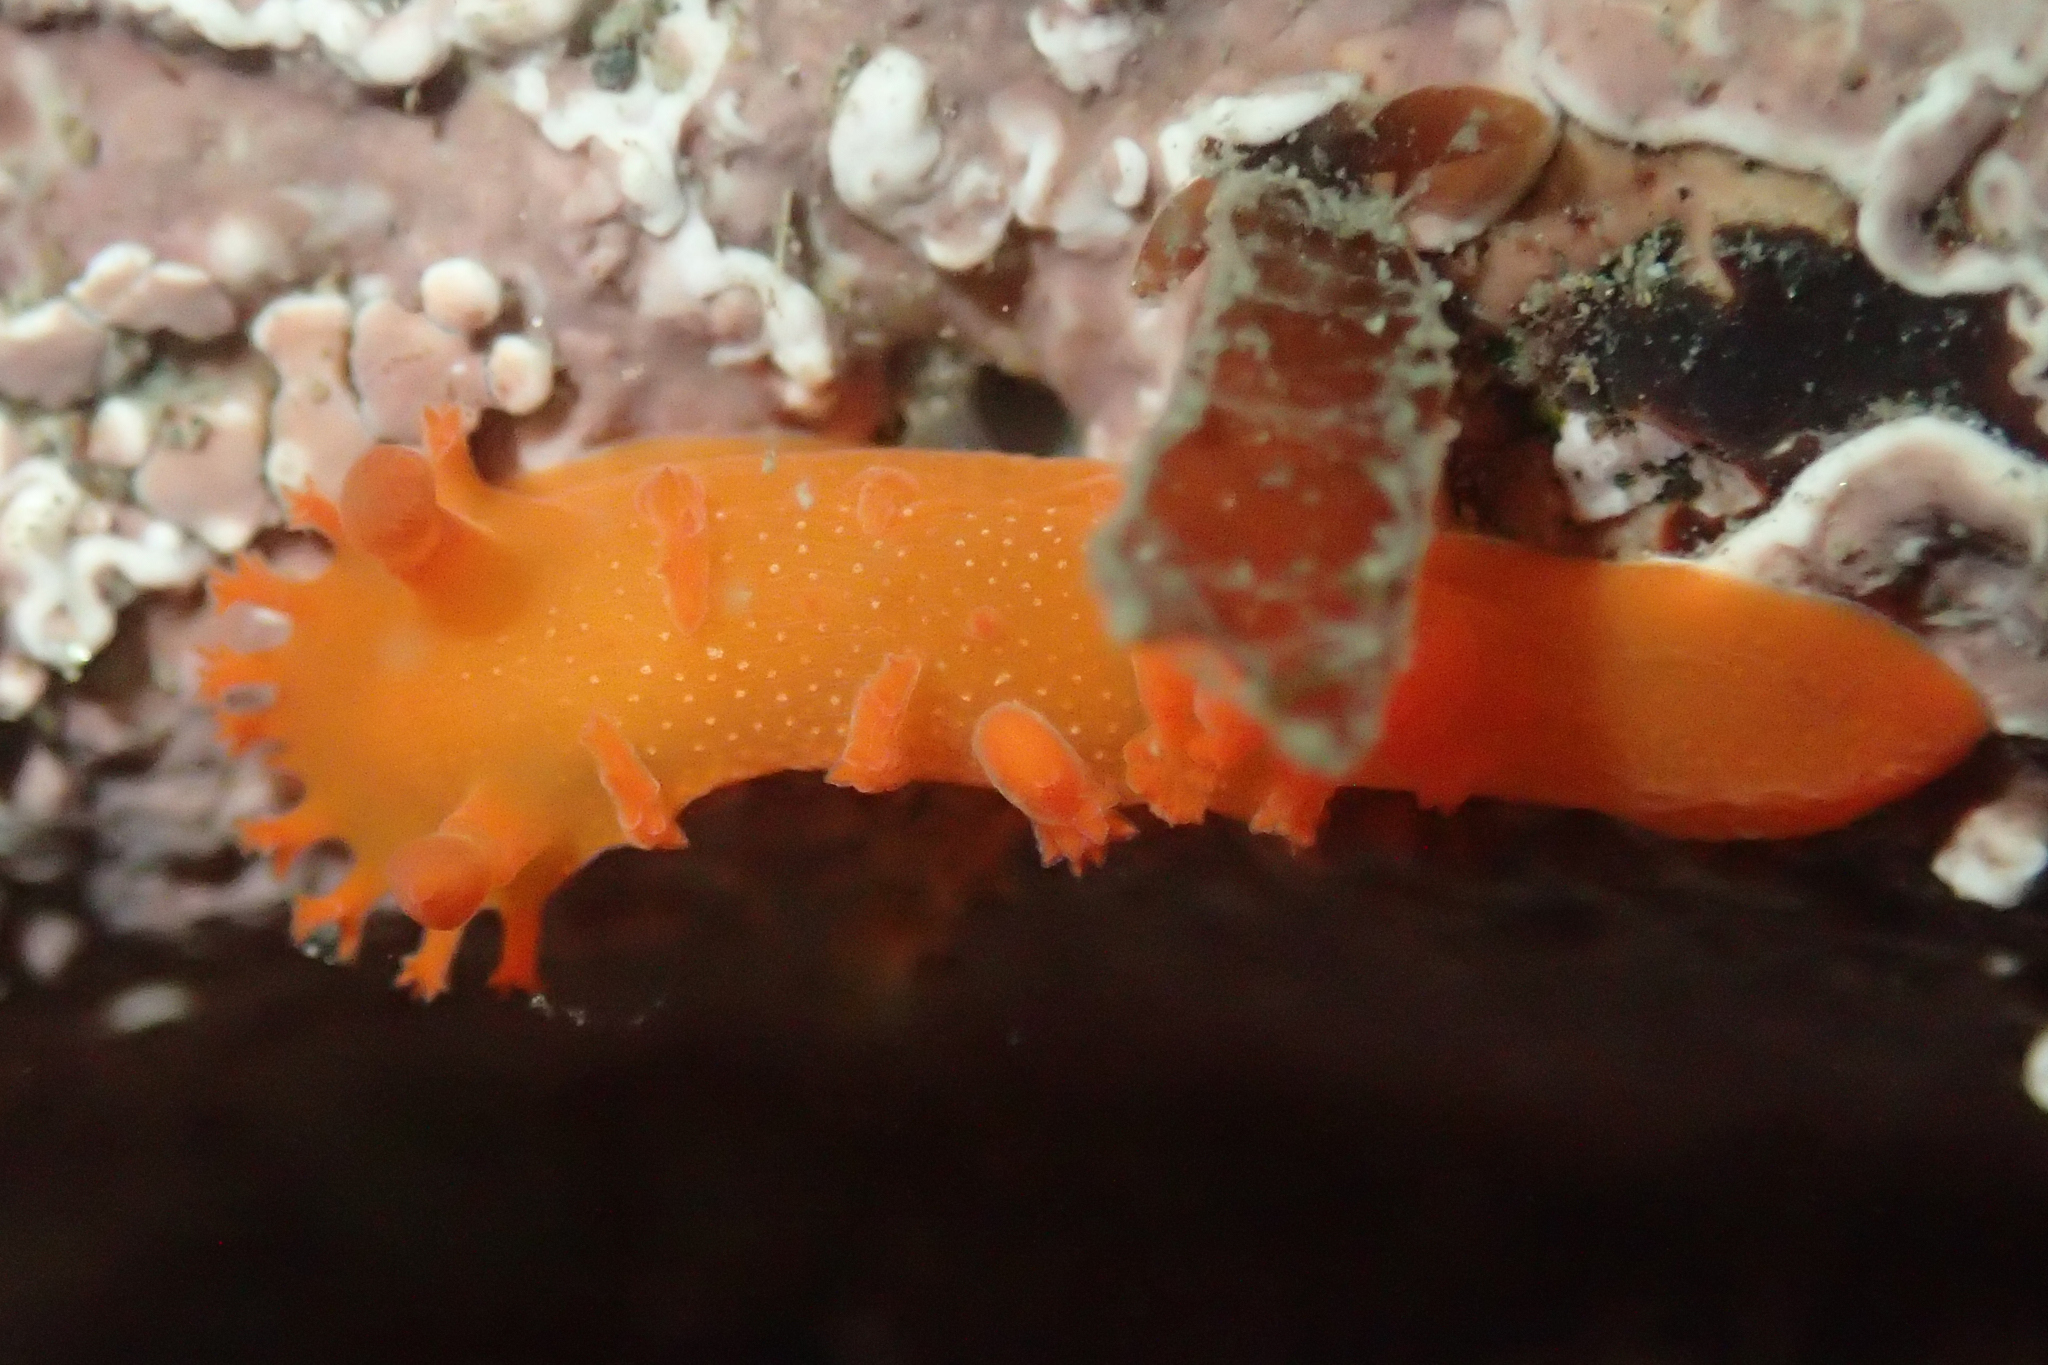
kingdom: Animalia
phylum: Mollusca
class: Gastropoda
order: Nudibranchia
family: Polyceridae
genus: Triopha
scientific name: Triopha maculata
